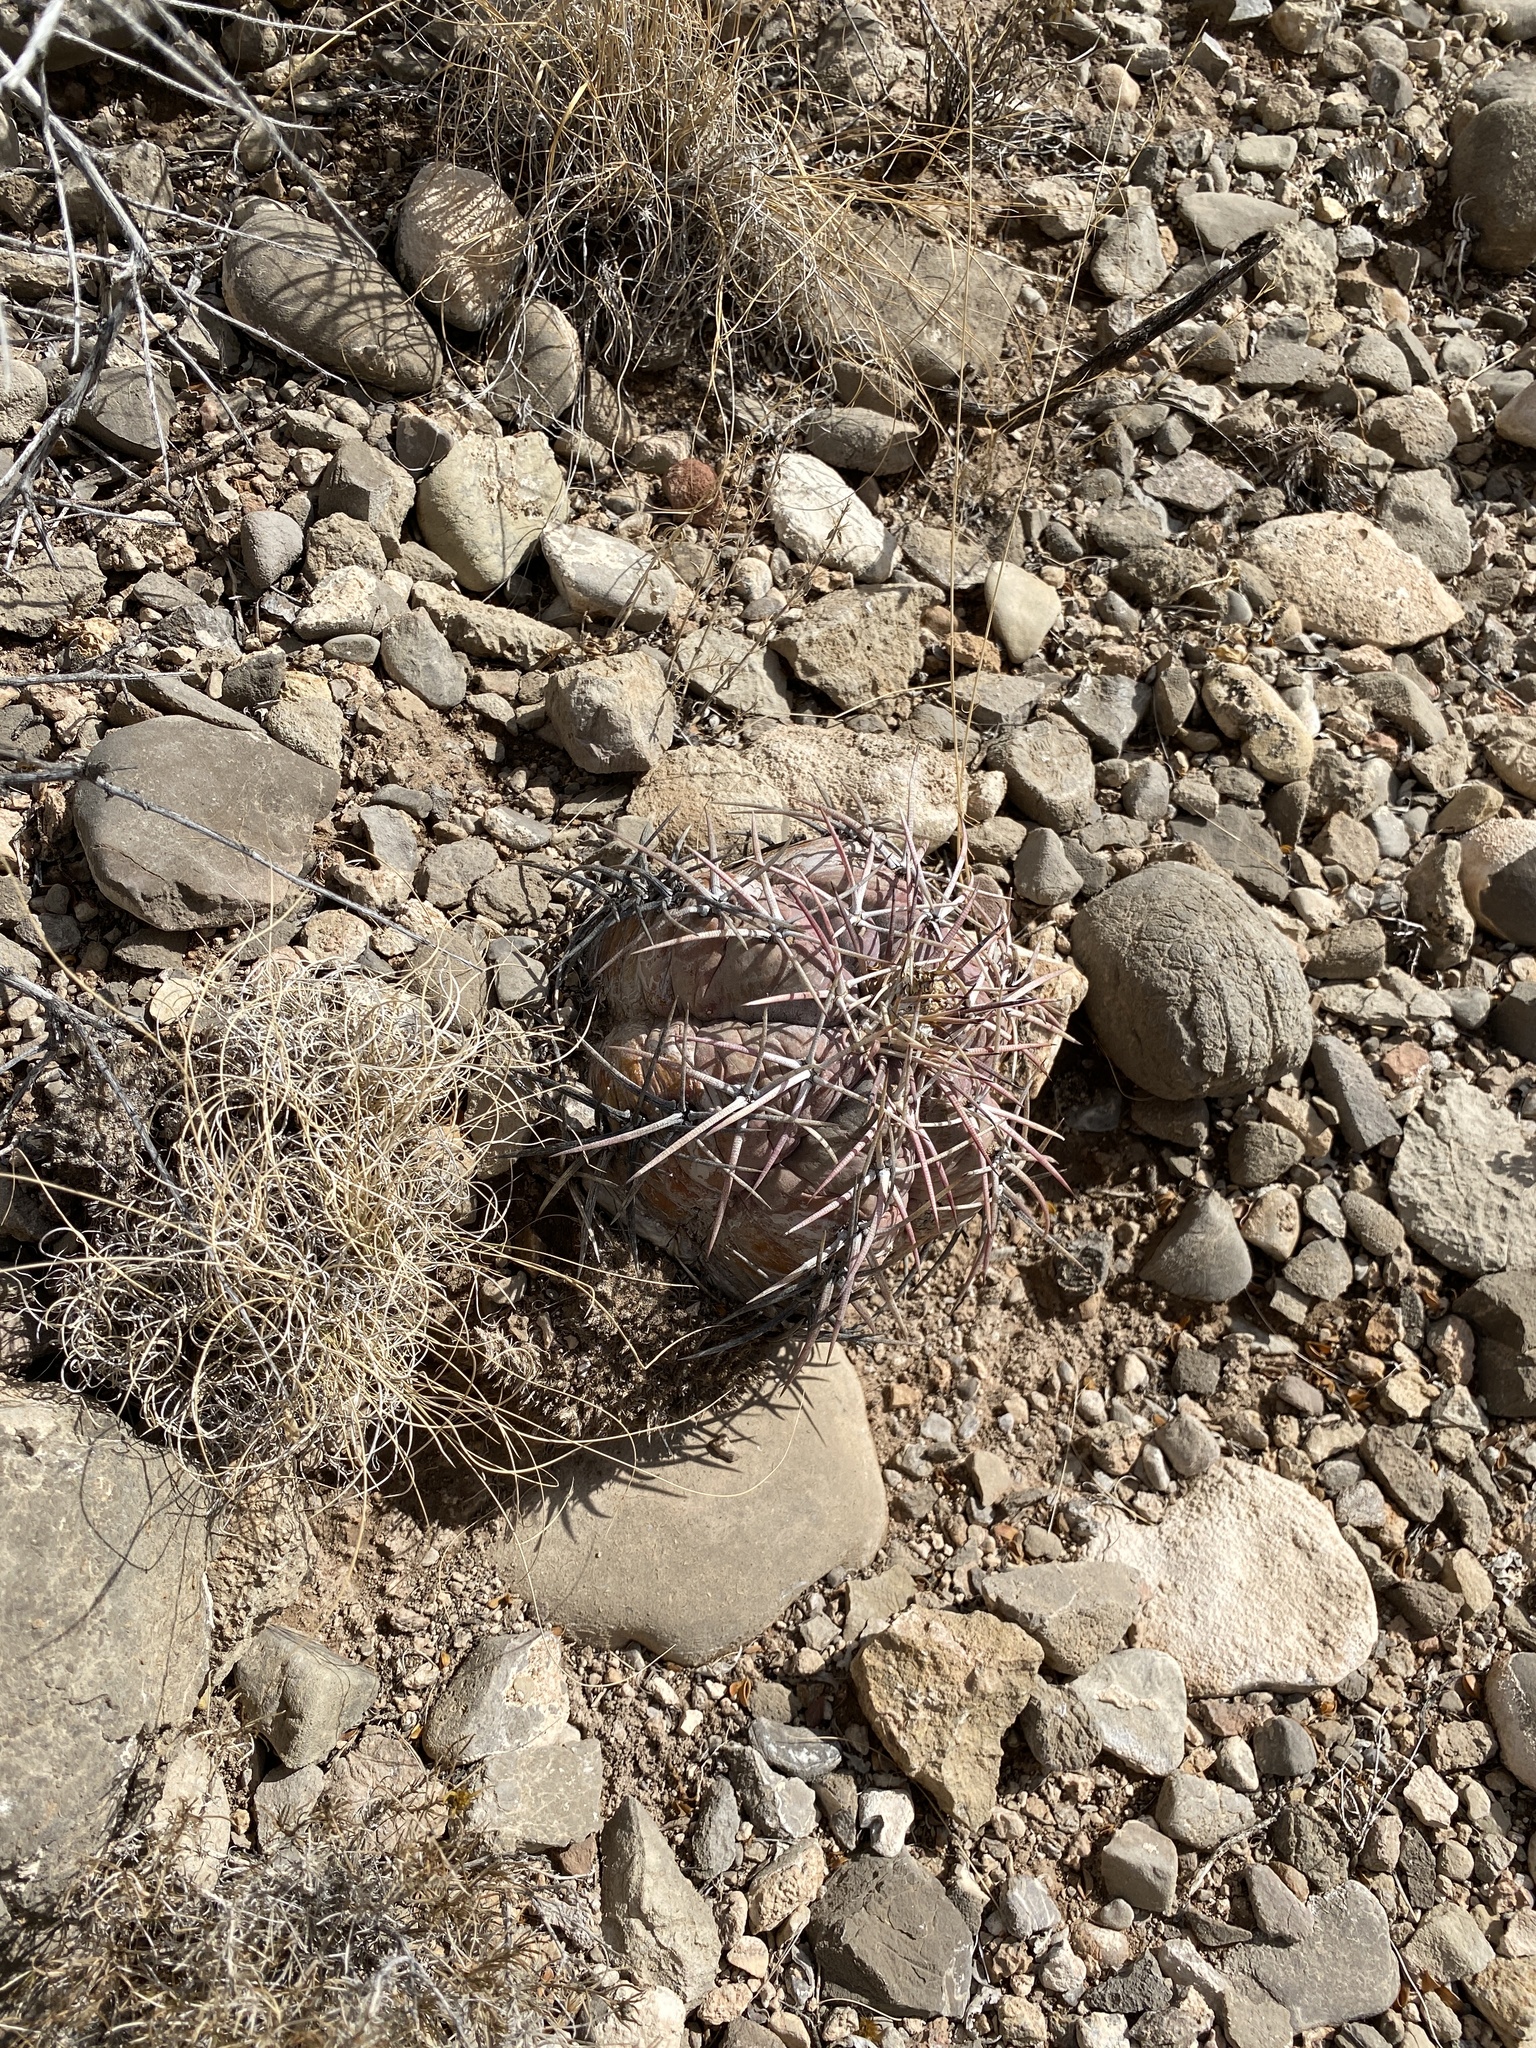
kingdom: Plantae
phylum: Tracheophyta
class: Magnoliopsida
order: Caryophyllales
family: Cactaceae
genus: Echinocactus
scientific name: Echinocactus horizonthalonius
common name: Devilshead
